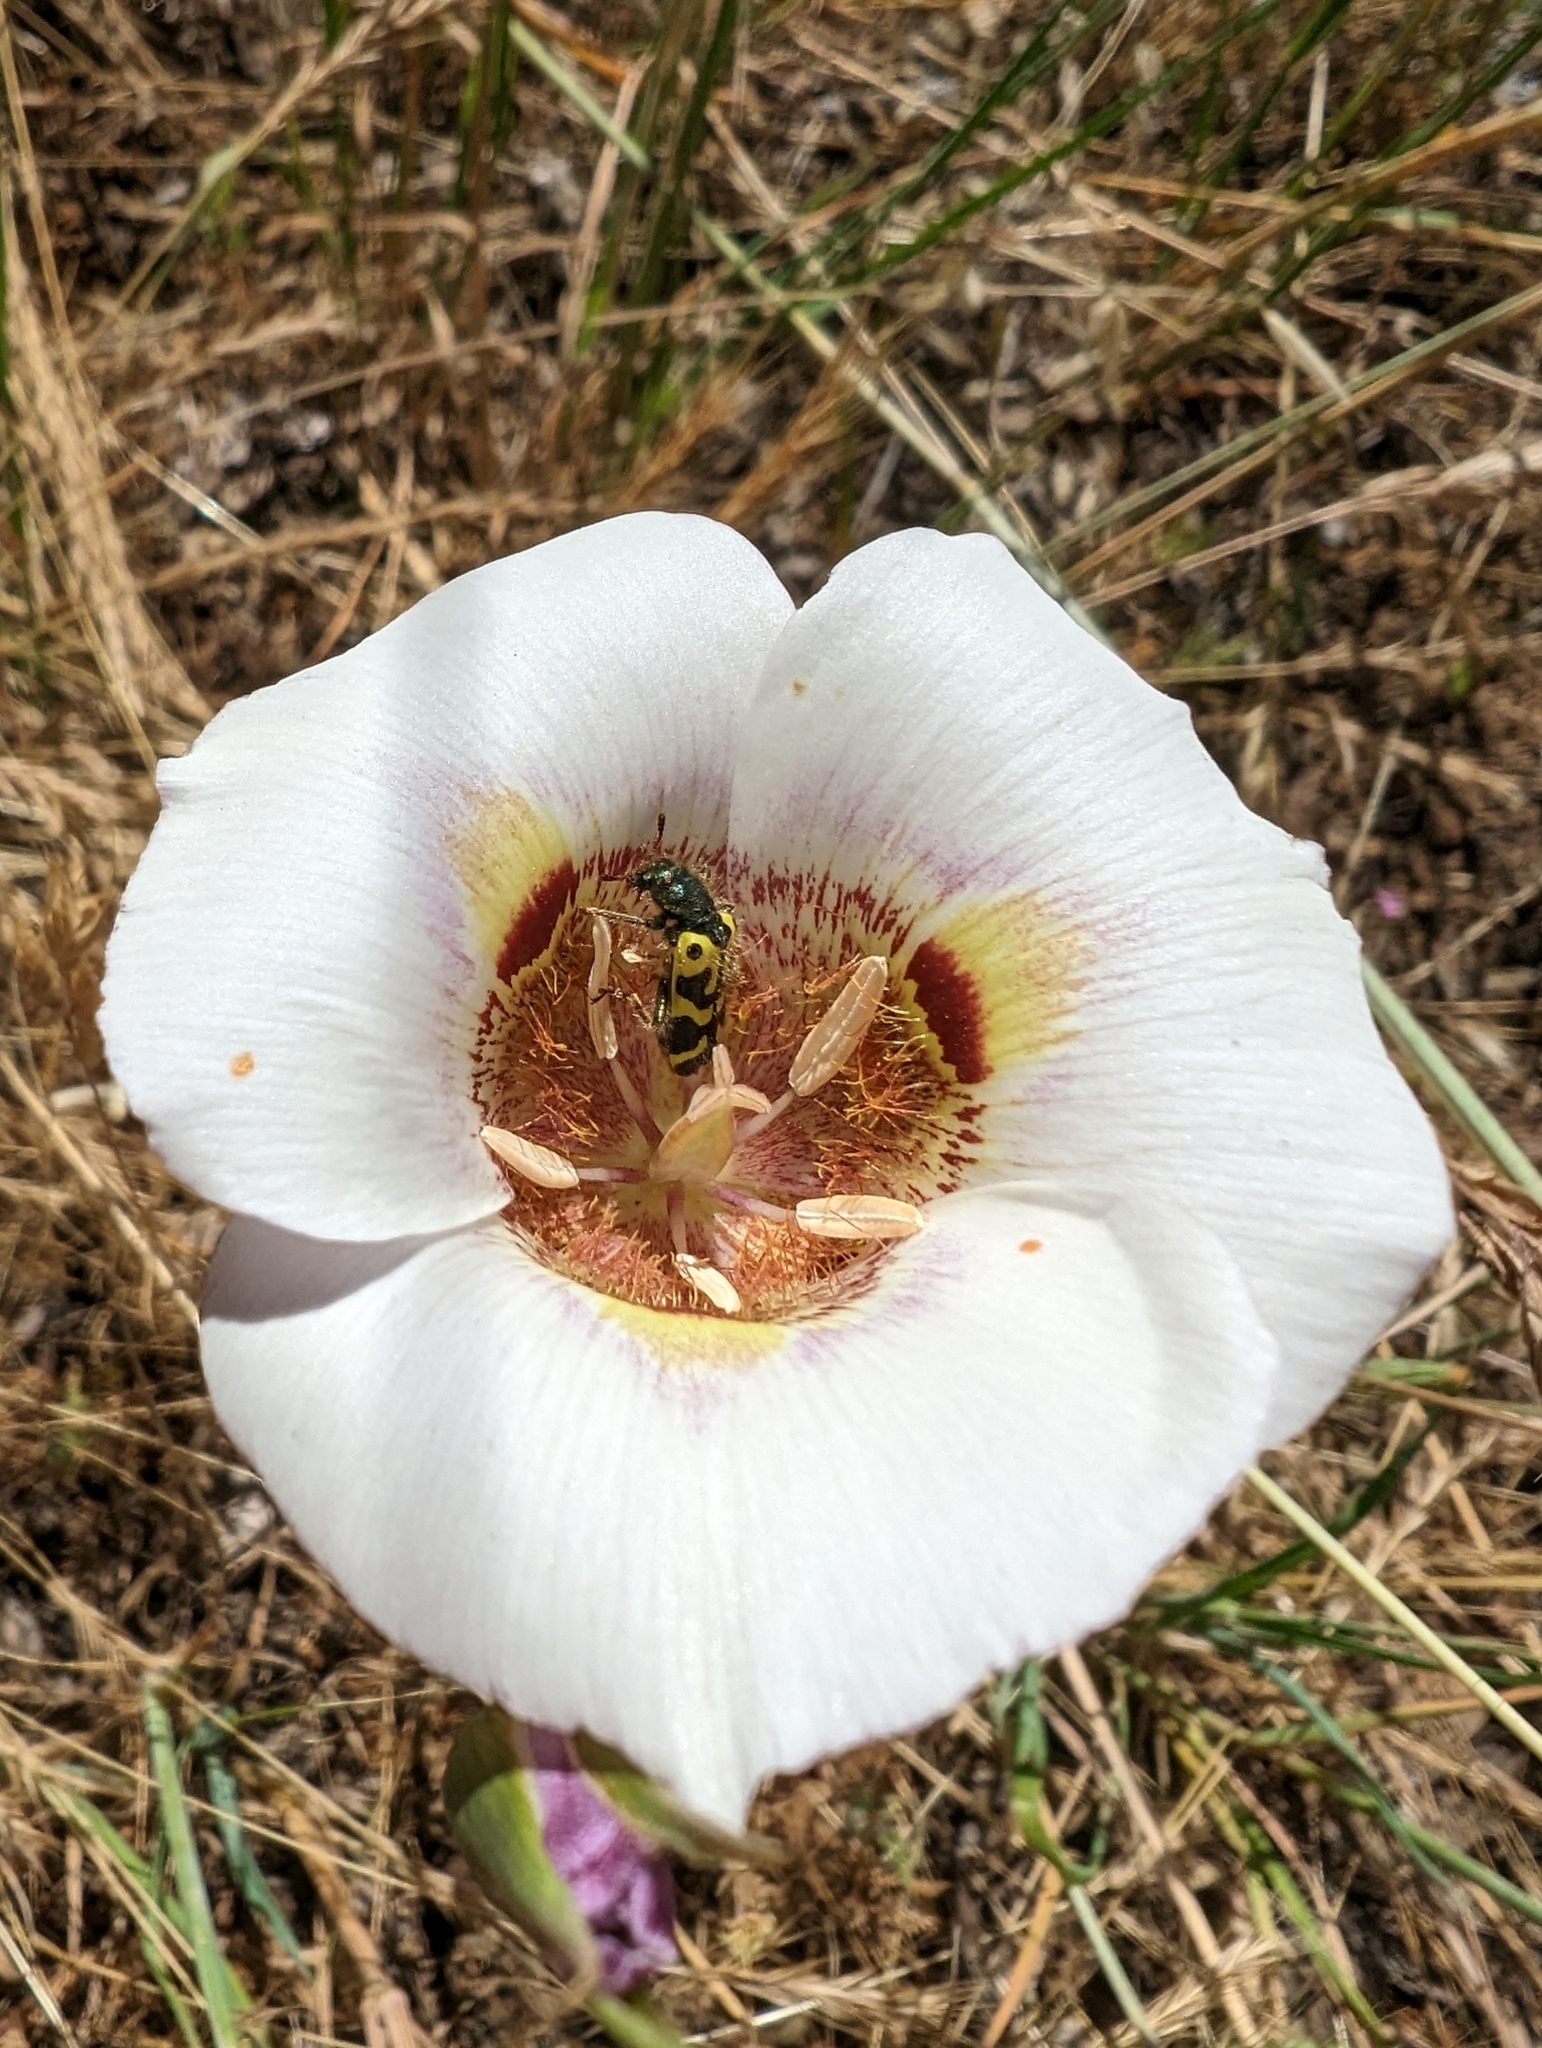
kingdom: Plantae
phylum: Tracheophyta
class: Liliopsida
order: Liliales
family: Liliaceae
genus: Calochortus
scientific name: Calochortus argillosus
